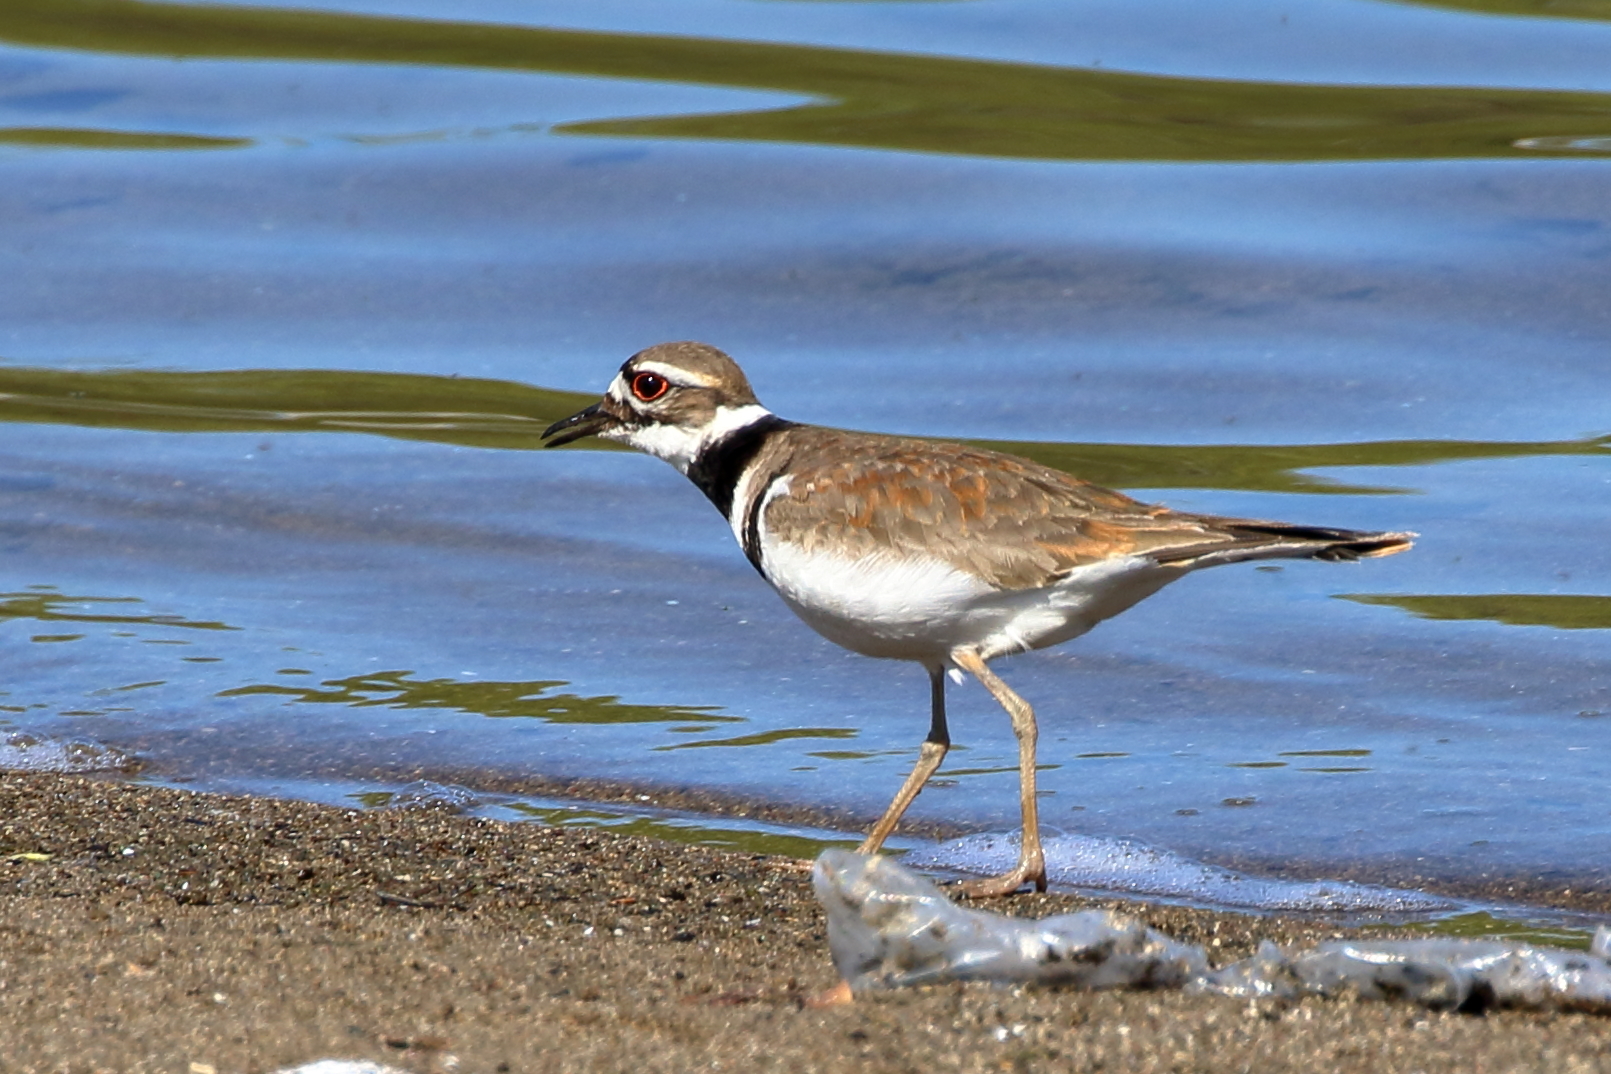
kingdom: Animalia
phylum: Chordata
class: Aves
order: Charadriiformes
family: Charadriidae
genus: Charadrius
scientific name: Charadrius vociferus
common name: Killdeer
